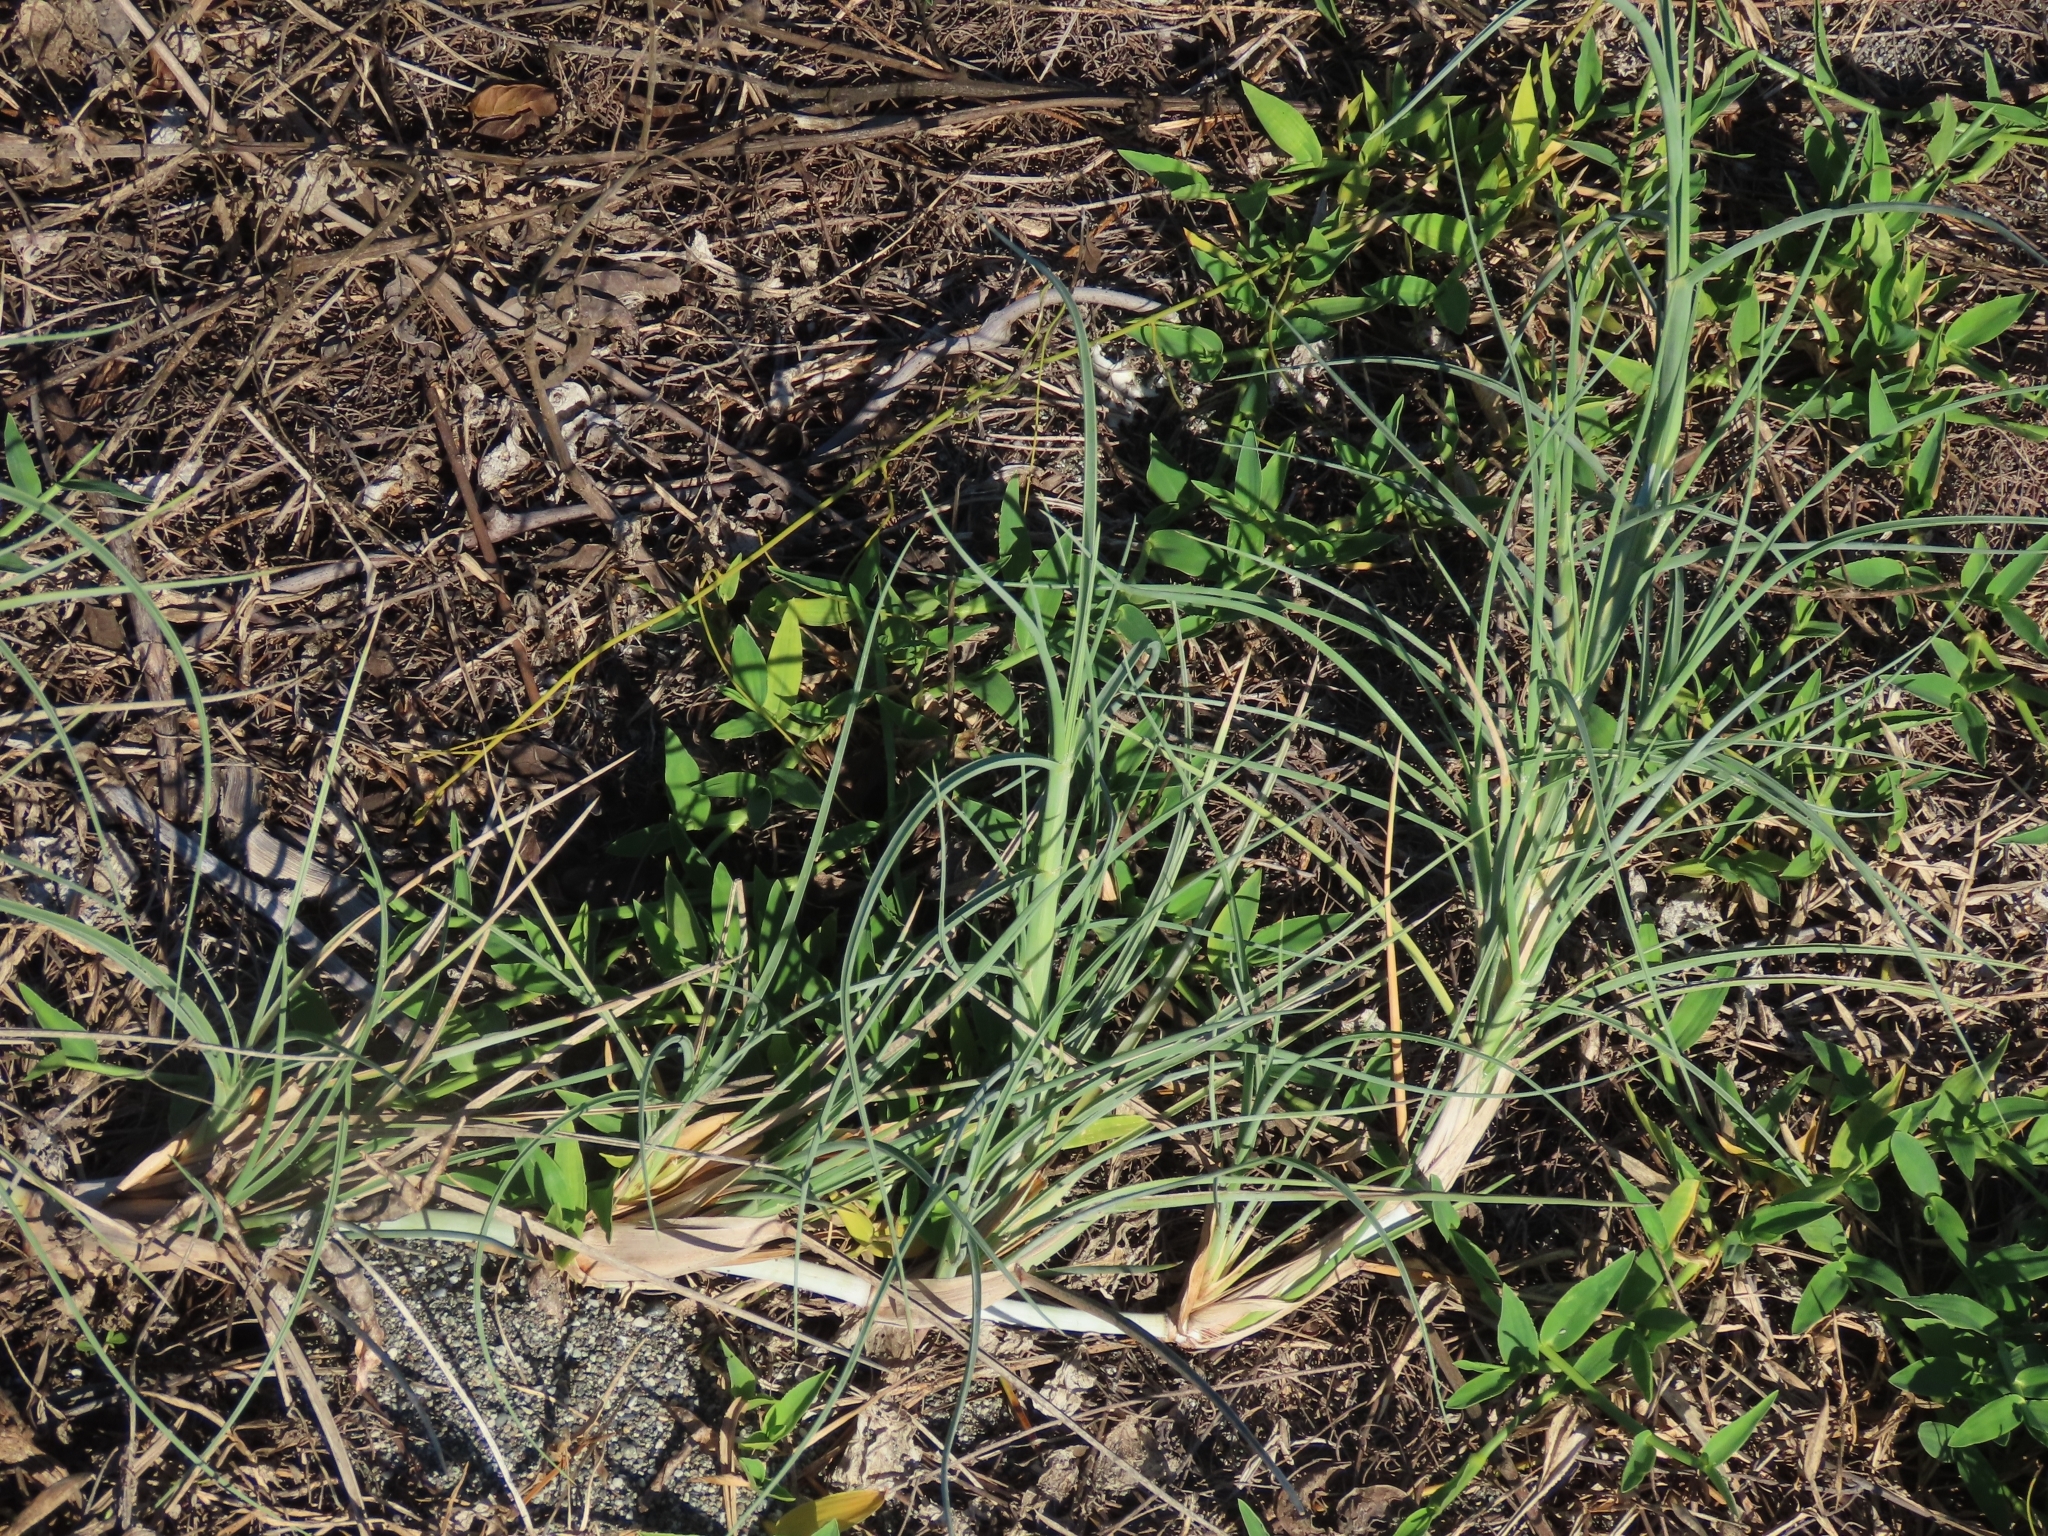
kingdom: Plantae
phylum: Tracheophyta
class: Liliopsida
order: Poales
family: Poaceae
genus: Spinifex
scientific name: Spinifex littoreus
